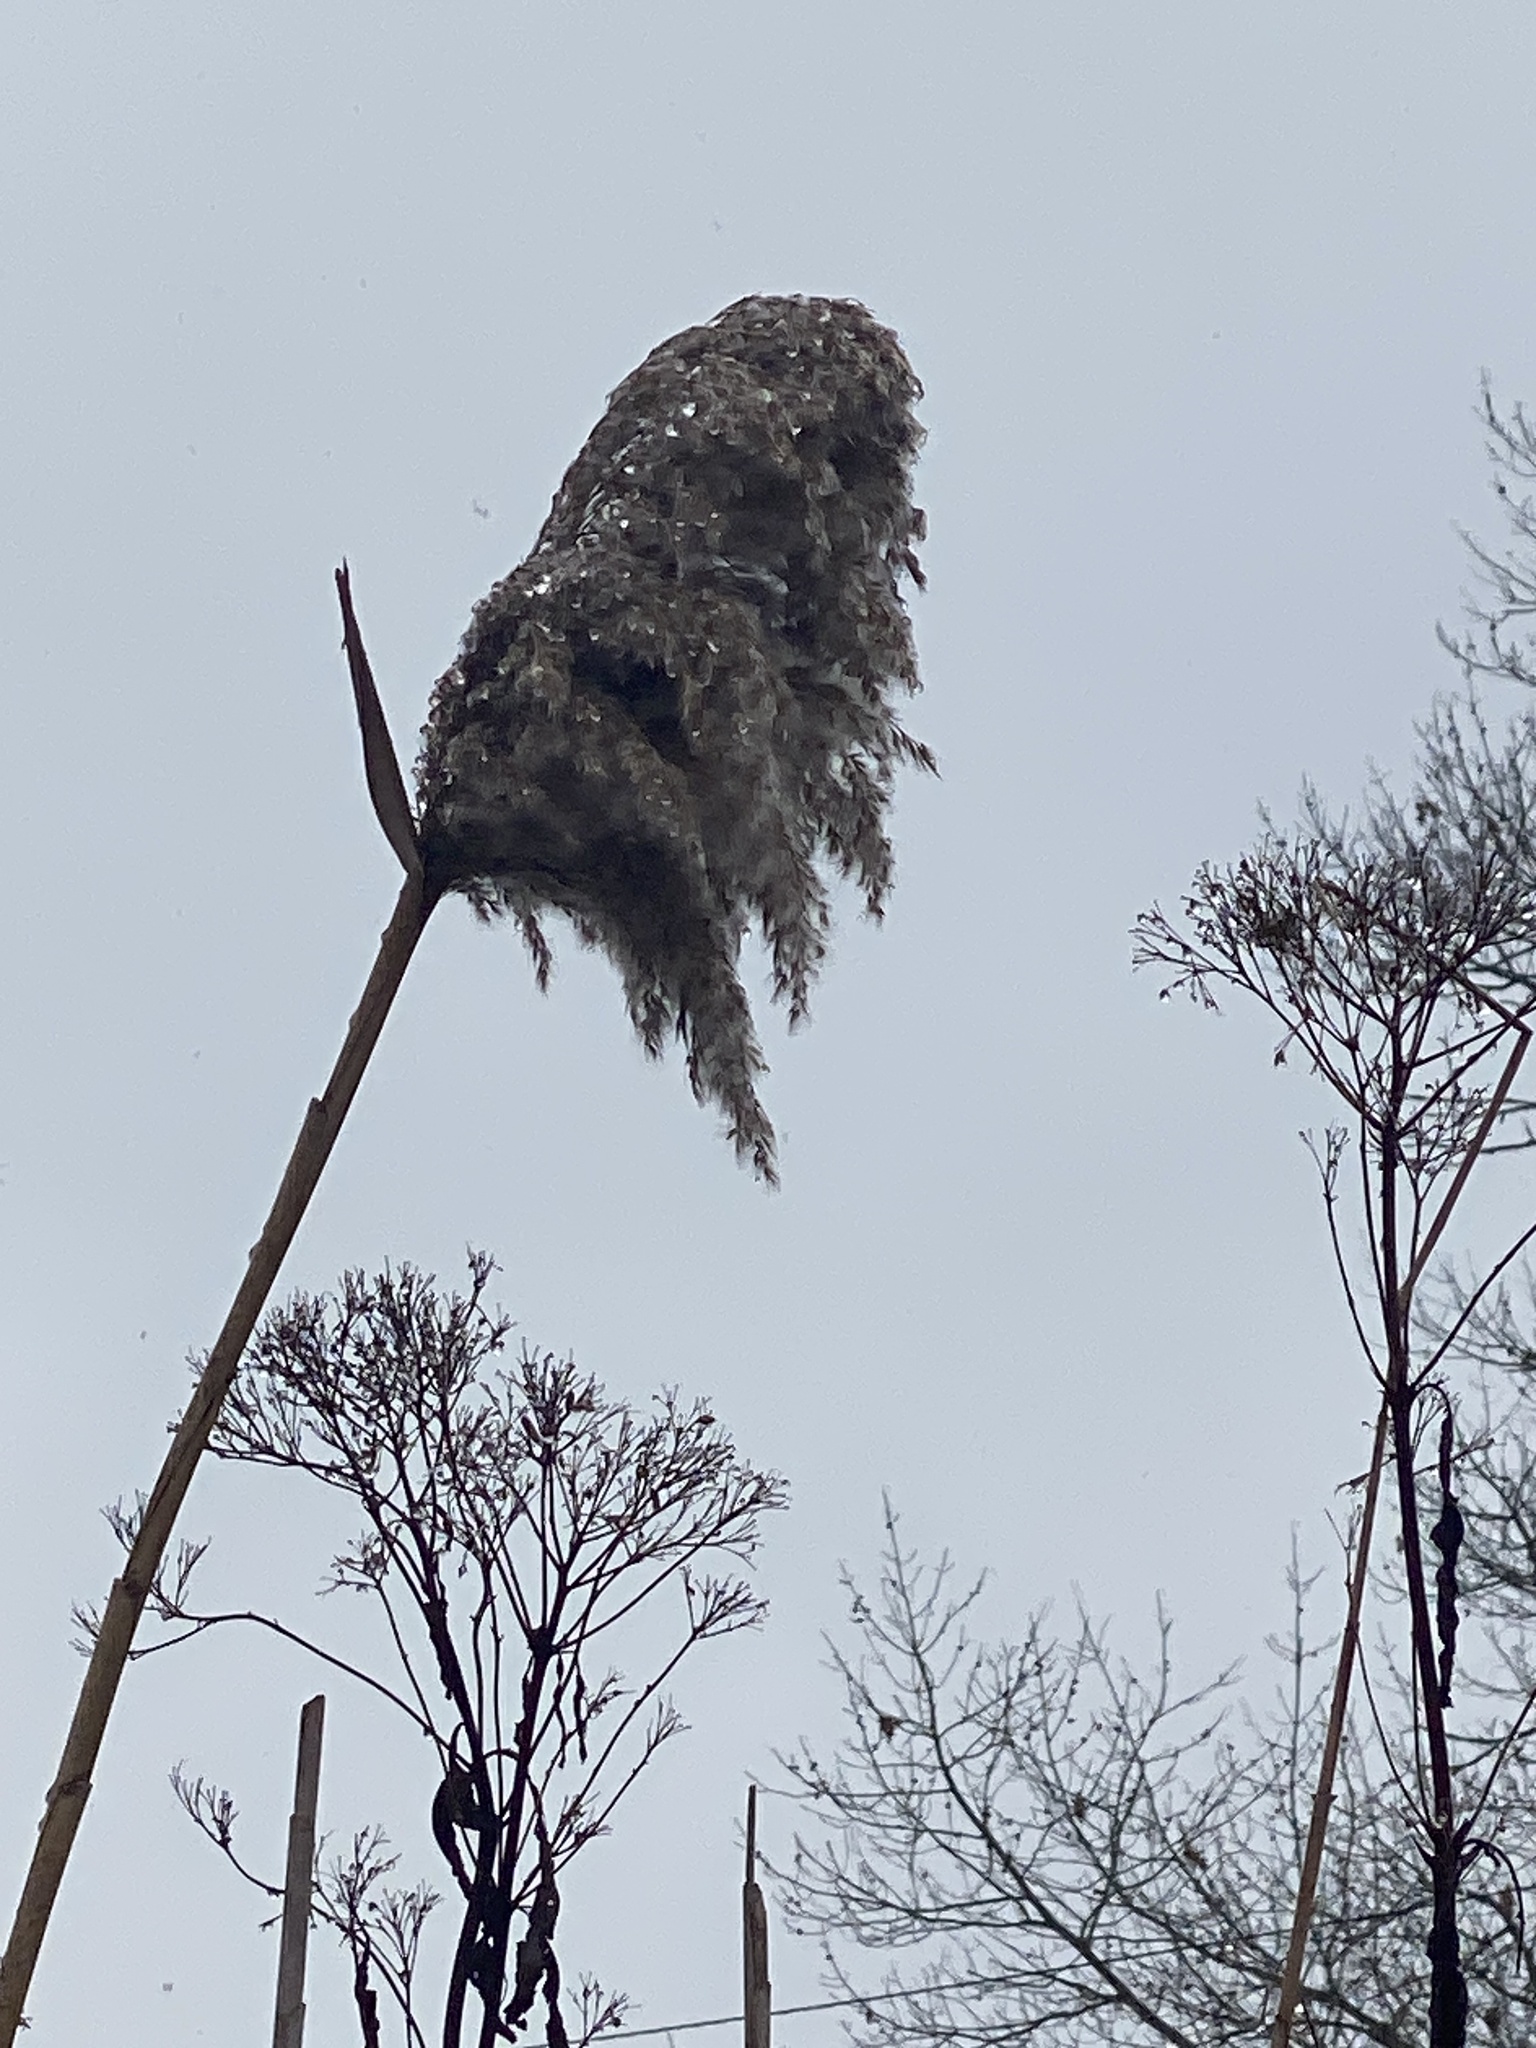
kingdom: Plantae
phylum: Tracheophyta
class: Liliopsida
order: Poales
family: Poaceae
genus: Phragmites
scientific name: Phragmites australis
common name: Common reed
